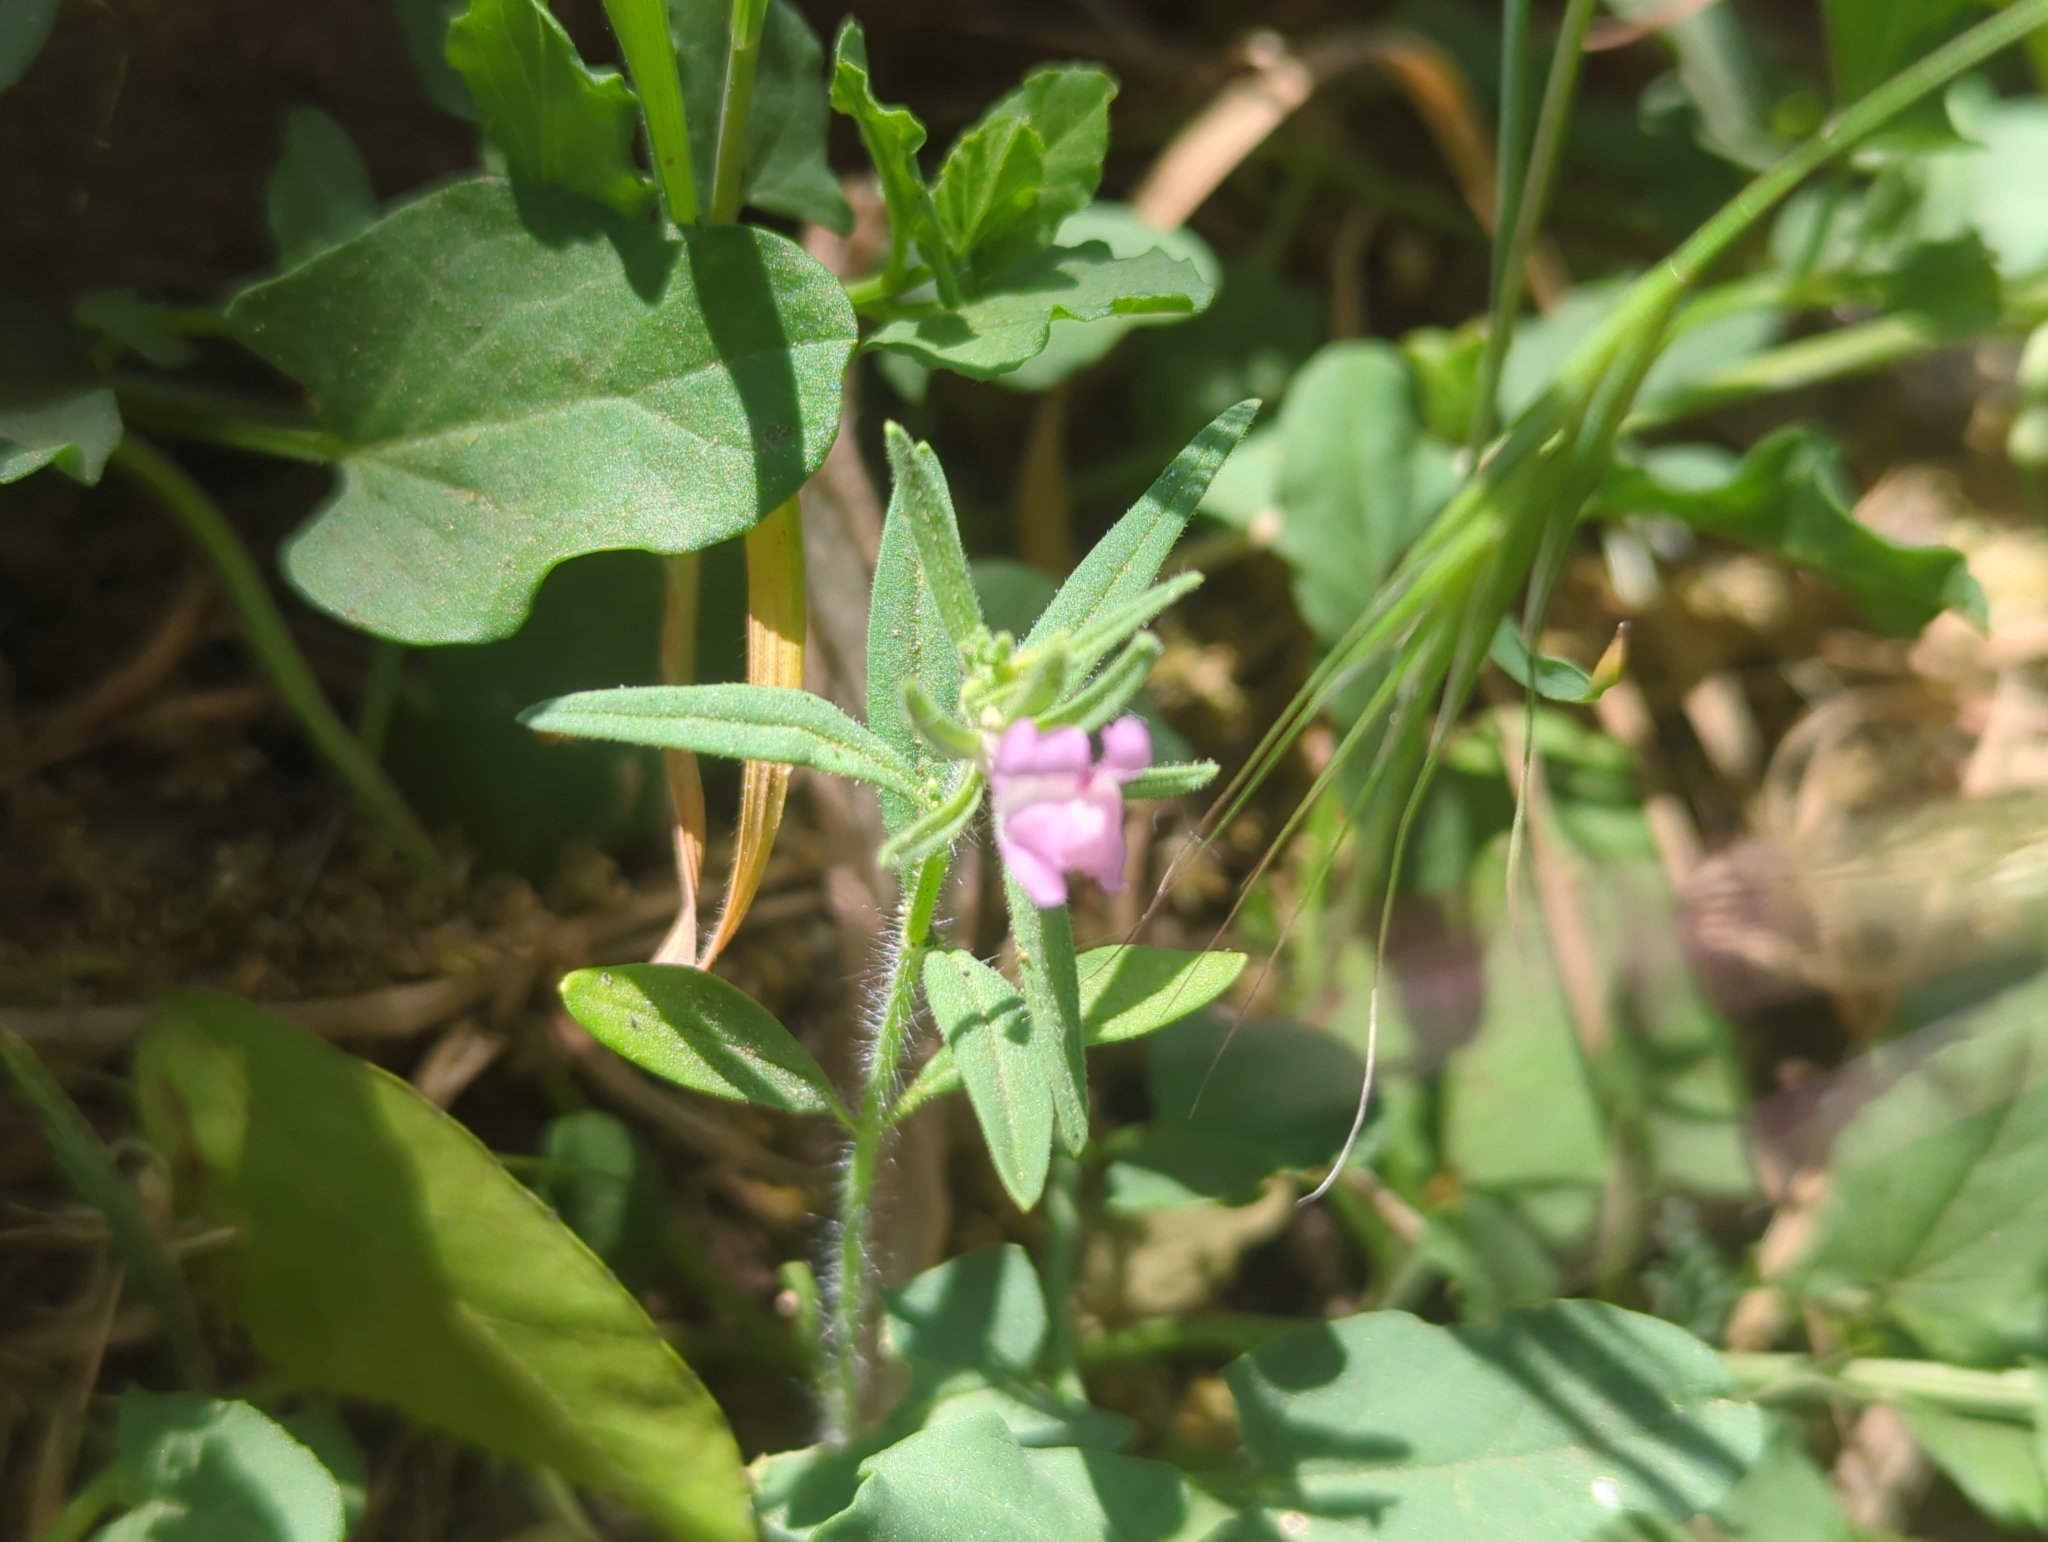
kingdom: Plantae
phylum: Tracheophyta
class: Magnoliopsida
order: Lamiales
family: Plantaginaceae
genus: Misopates
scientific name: Misopates orontium
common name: Weasel's-snout
